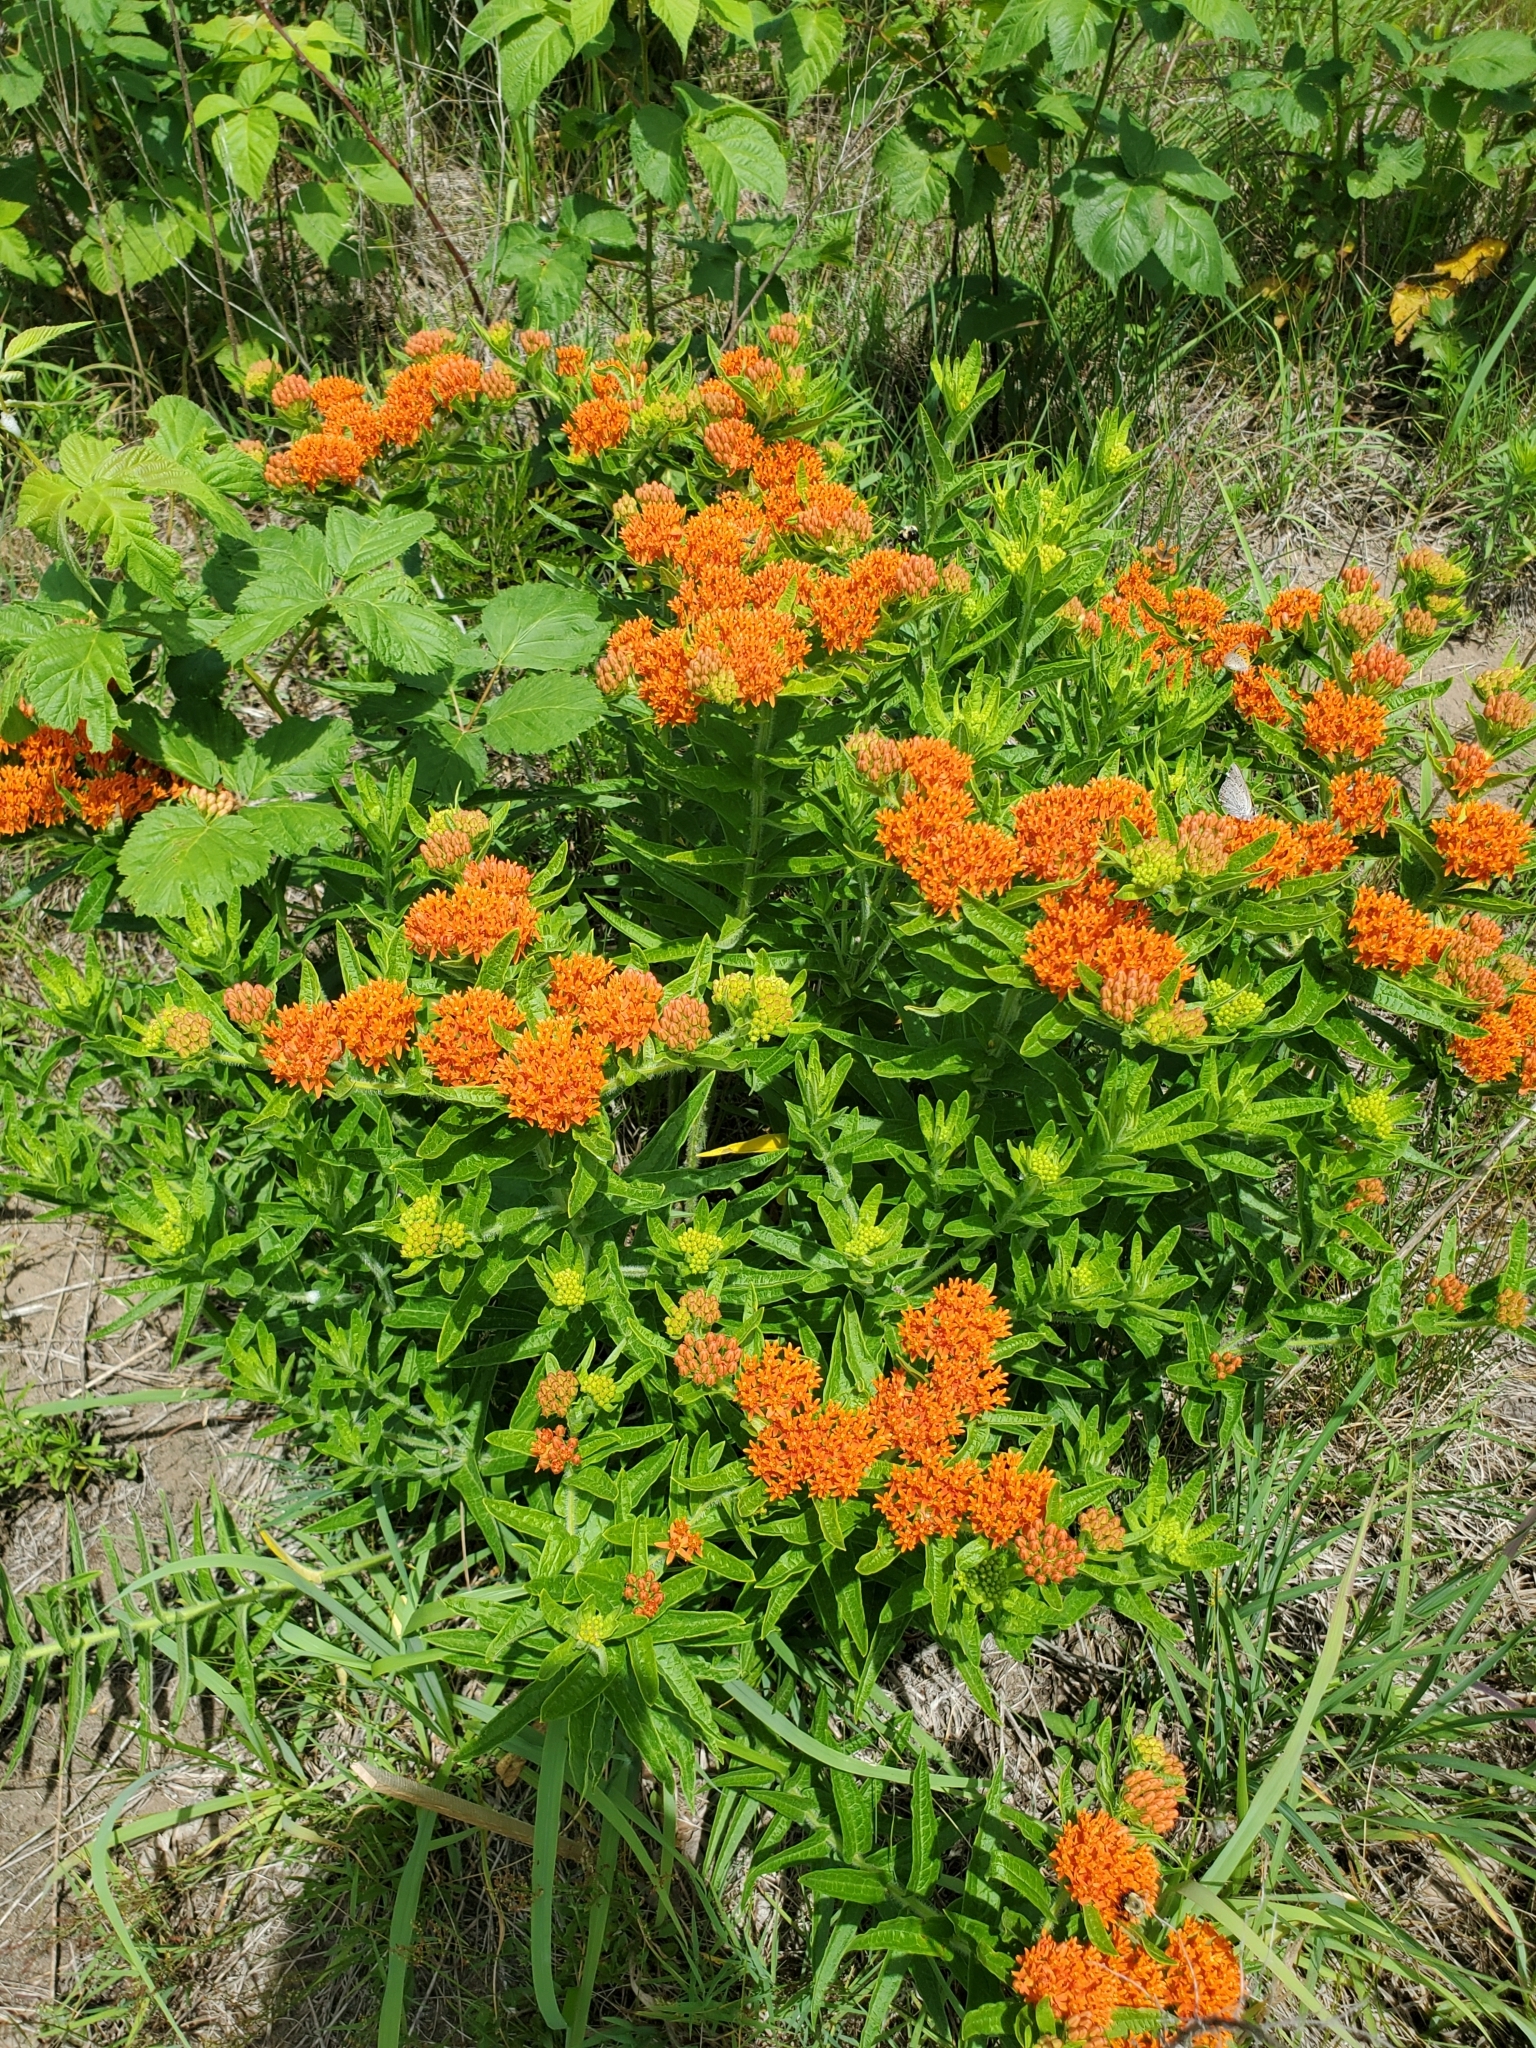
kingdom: Plantae
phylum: Tracheophyta
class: Magnoliopsida
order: Gentianales
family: Apocynaceae
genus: Asclepias
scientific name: Asclepias tuberosa
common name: Butterfly milkweed
